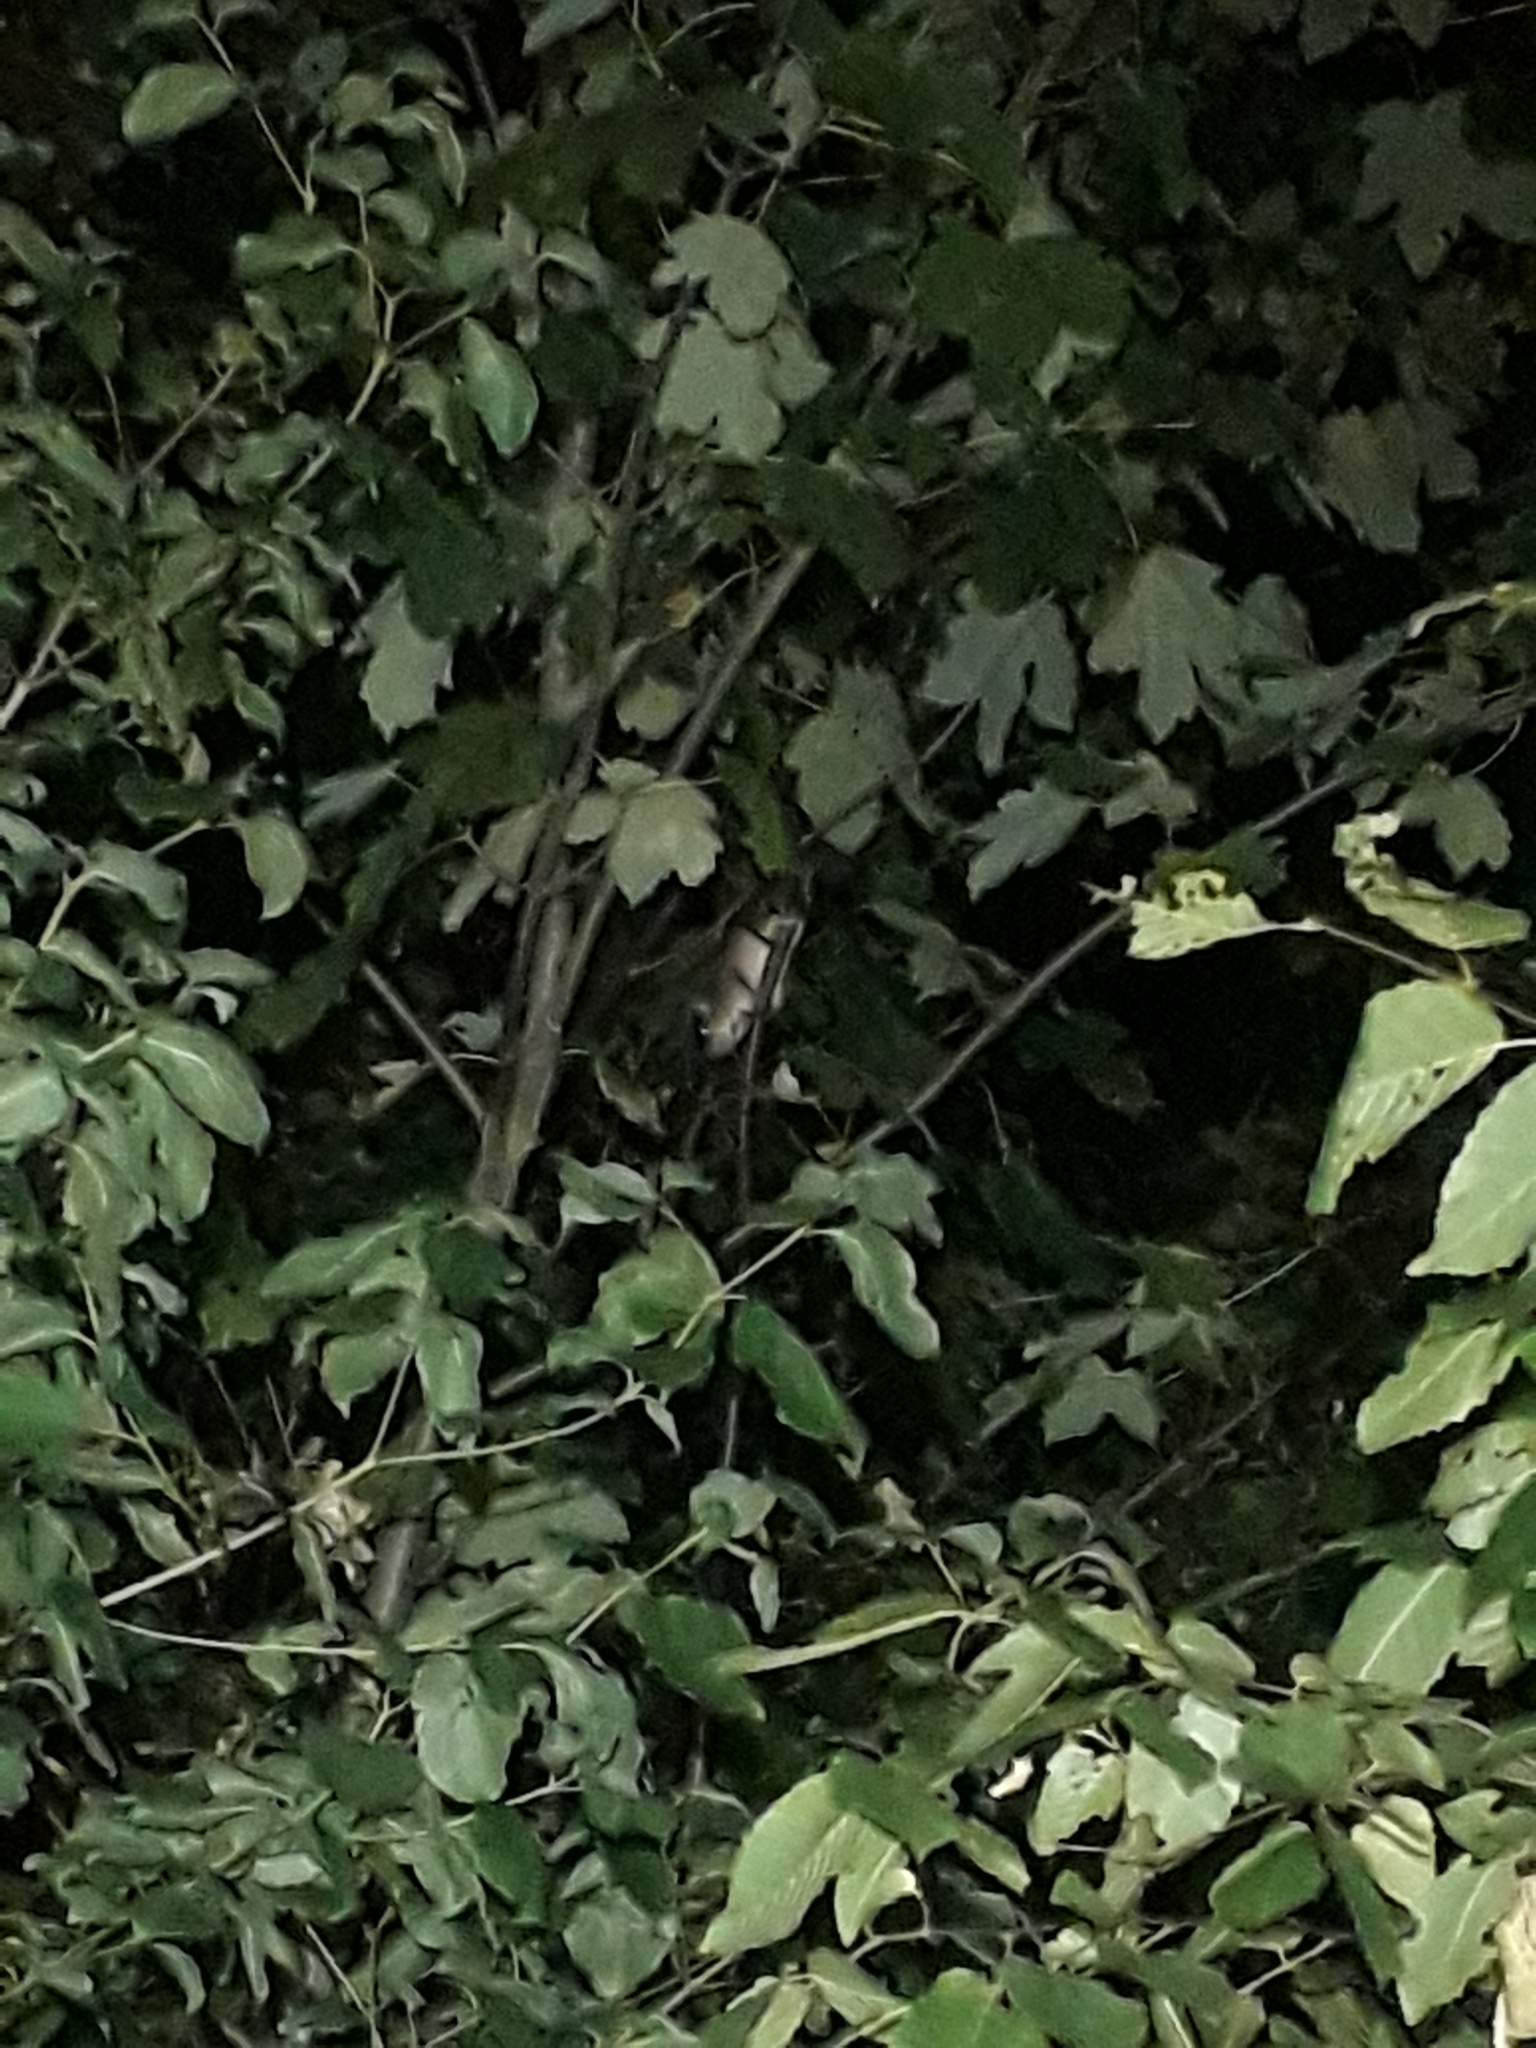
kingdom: Animalia
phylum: Chordata
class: Mammalia
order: Rodentia
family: Gliridae
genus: Glis
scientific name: Glis glis
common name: Fat dormouse
